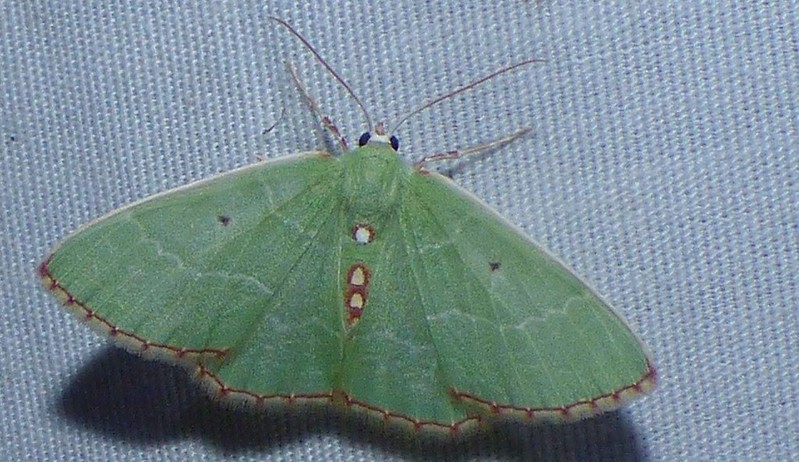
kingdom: Animalia
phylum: Arthropoda
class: Insecta
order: Lepidoptera
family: Geometridae
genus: Nemoria
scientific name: Nemoria lixaria
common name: Red-bordered emerald
